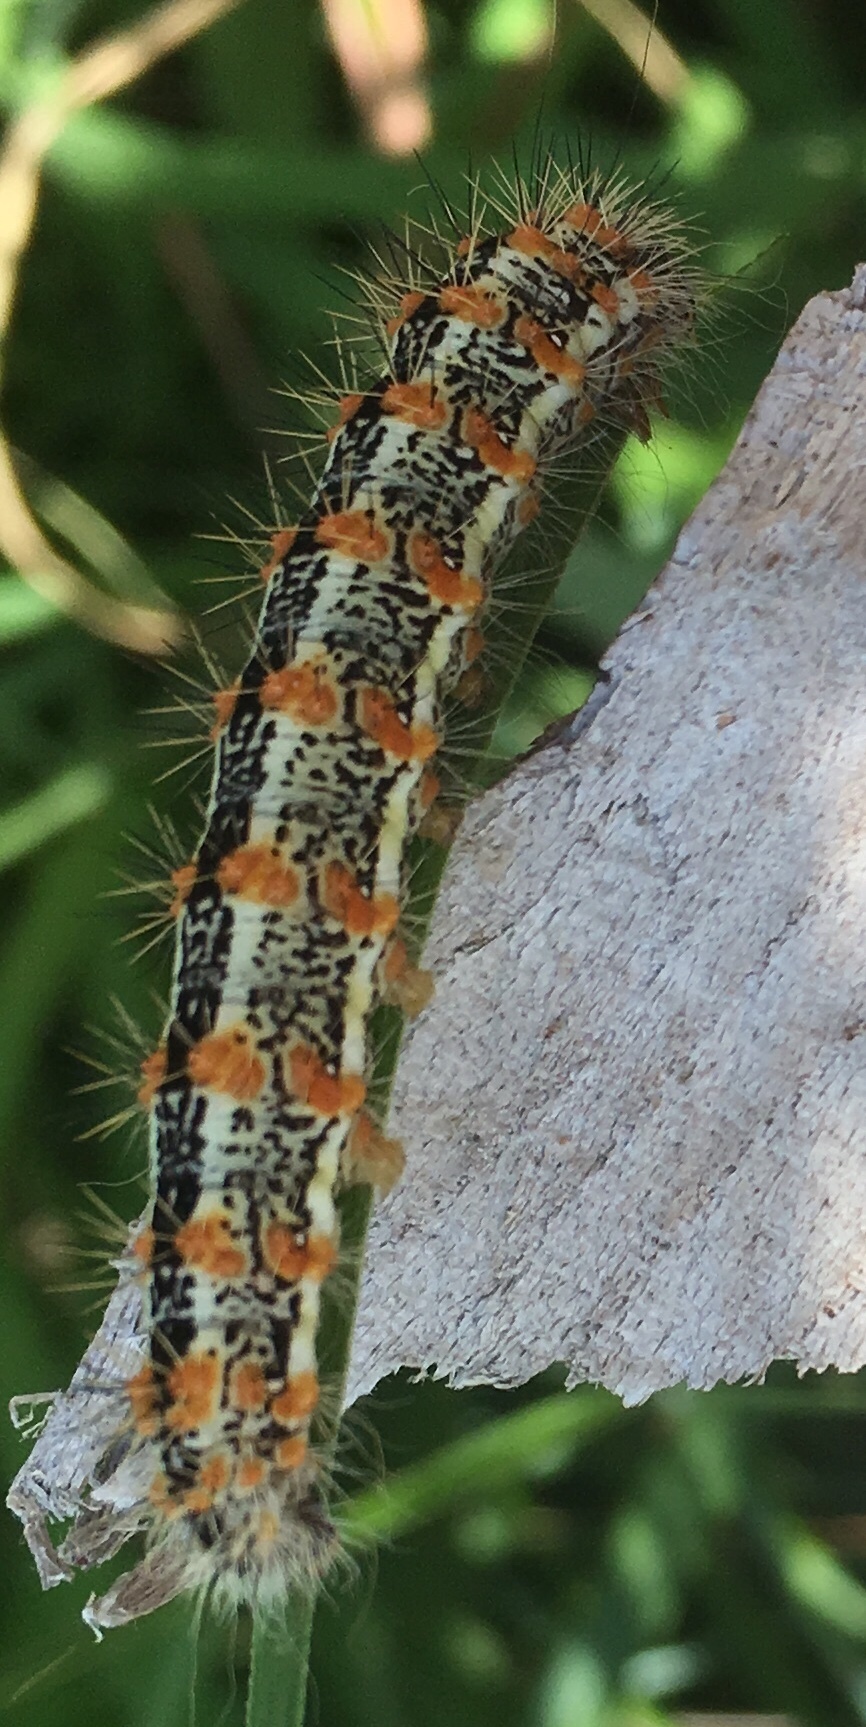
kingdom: Animalia
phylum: Arthropoda
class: Insecta
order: Lepidoptera
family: Noctuidae
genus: Acronicta
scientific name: Acronicta insularis
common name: Henry's marsh moth
